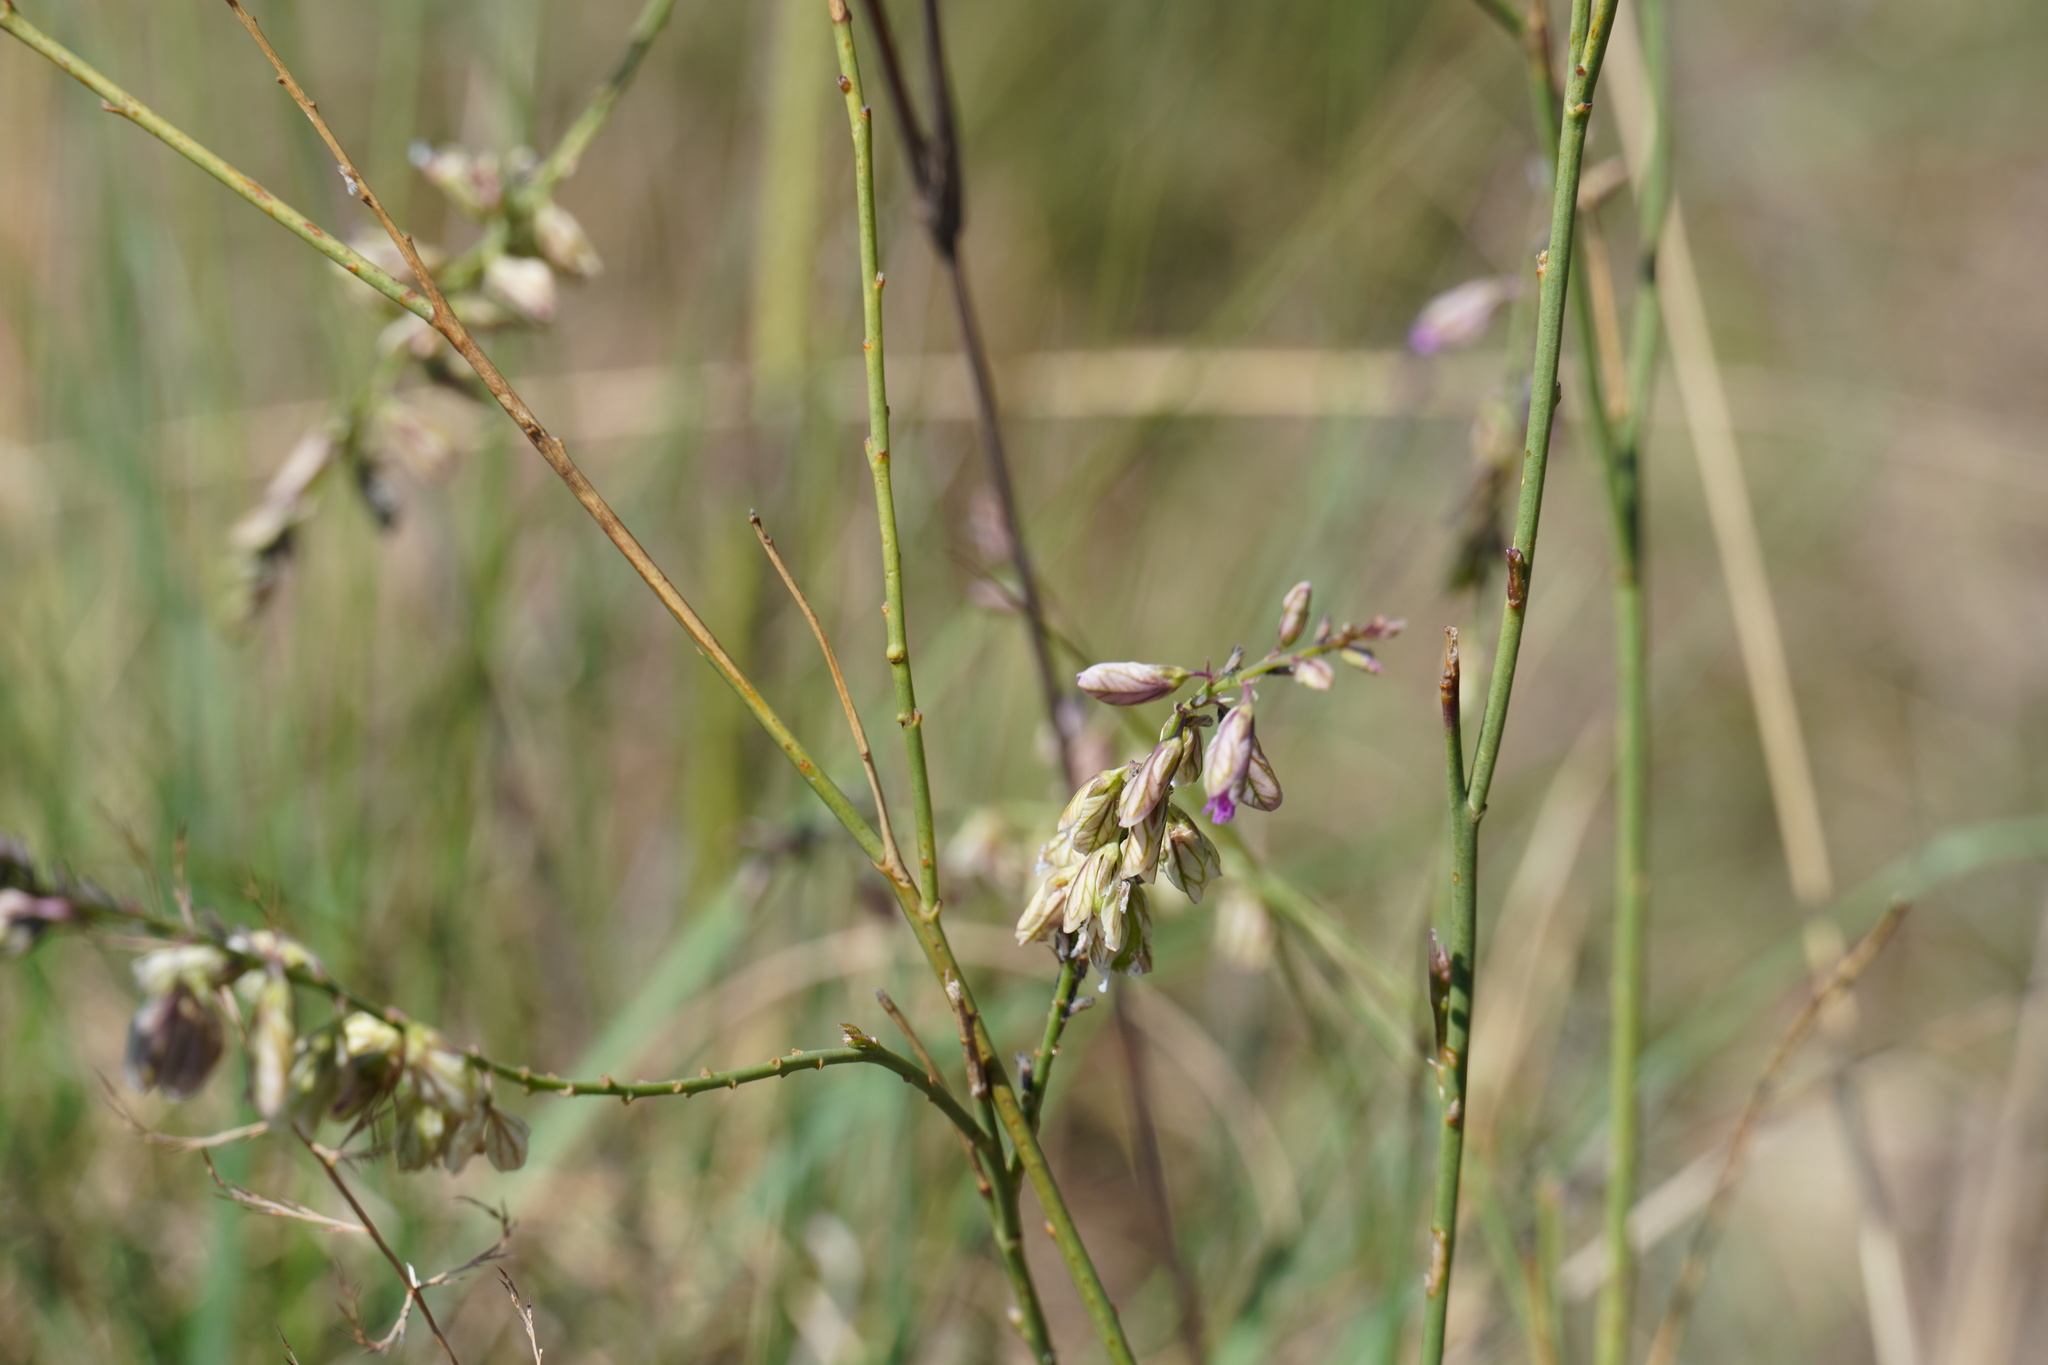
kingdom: Plantae
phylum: Tracheophyta
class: Magnoliopsida
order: Fabales
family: Polygalaceae
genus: Polygala
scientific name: Polygala hottentotta
